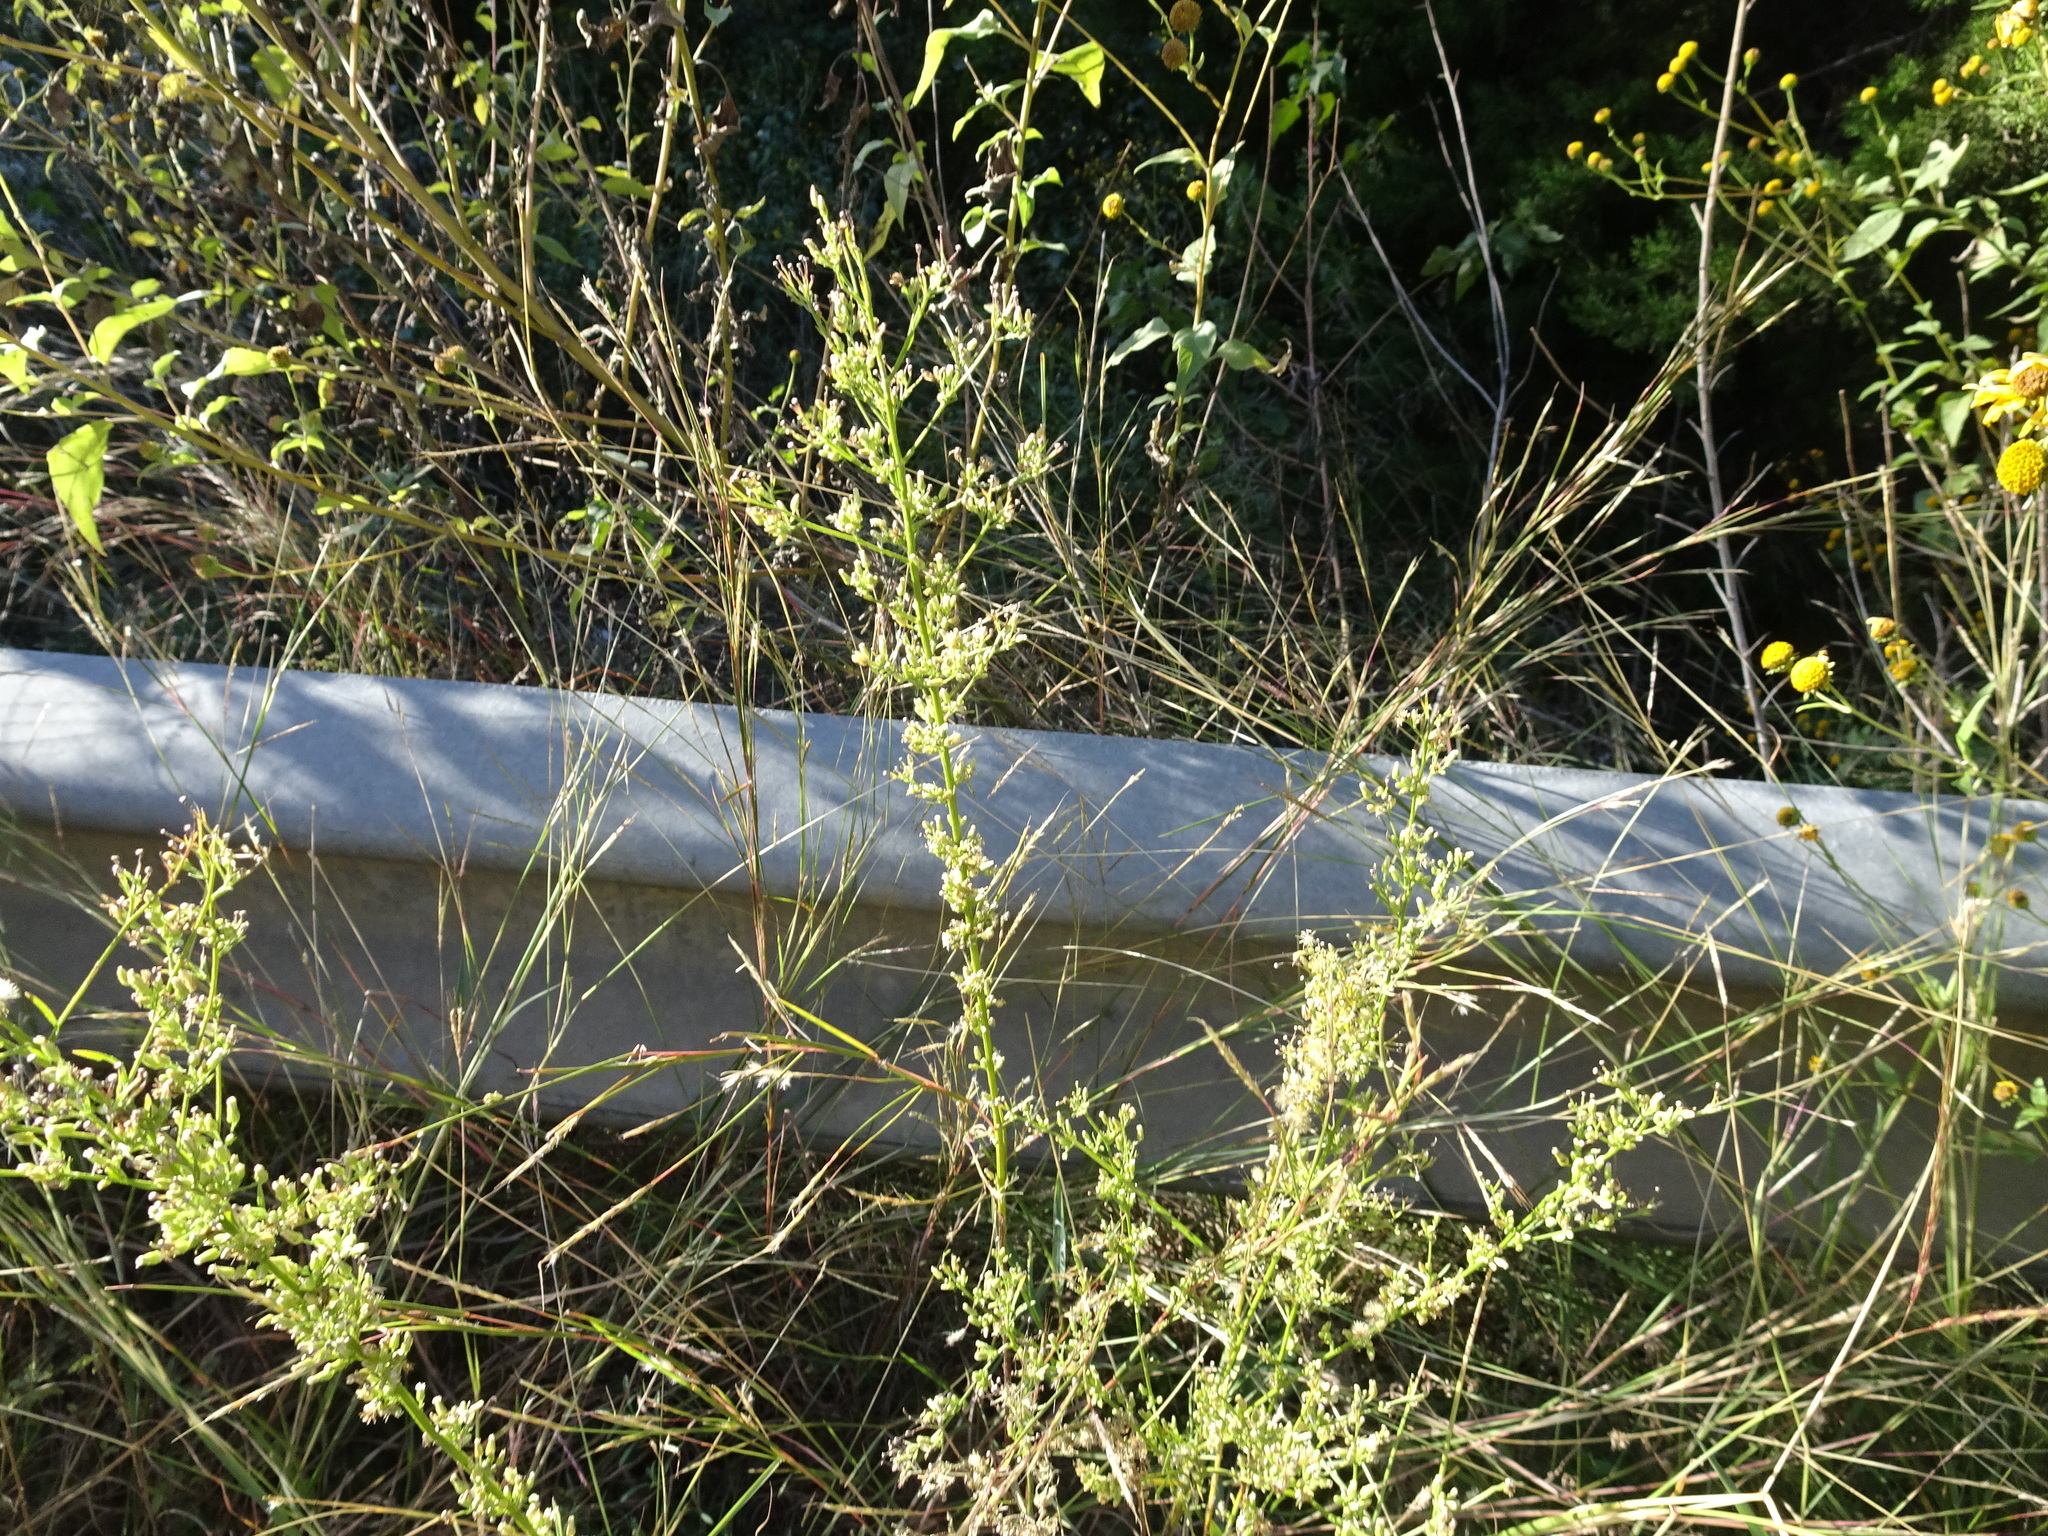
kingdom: Plantae
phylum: Tracheophyta
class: Magnoliopsida
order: Asterales
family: Asteraceae
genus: Erigeron
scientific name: Erigeron canadensis
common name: Canadian fleabane
